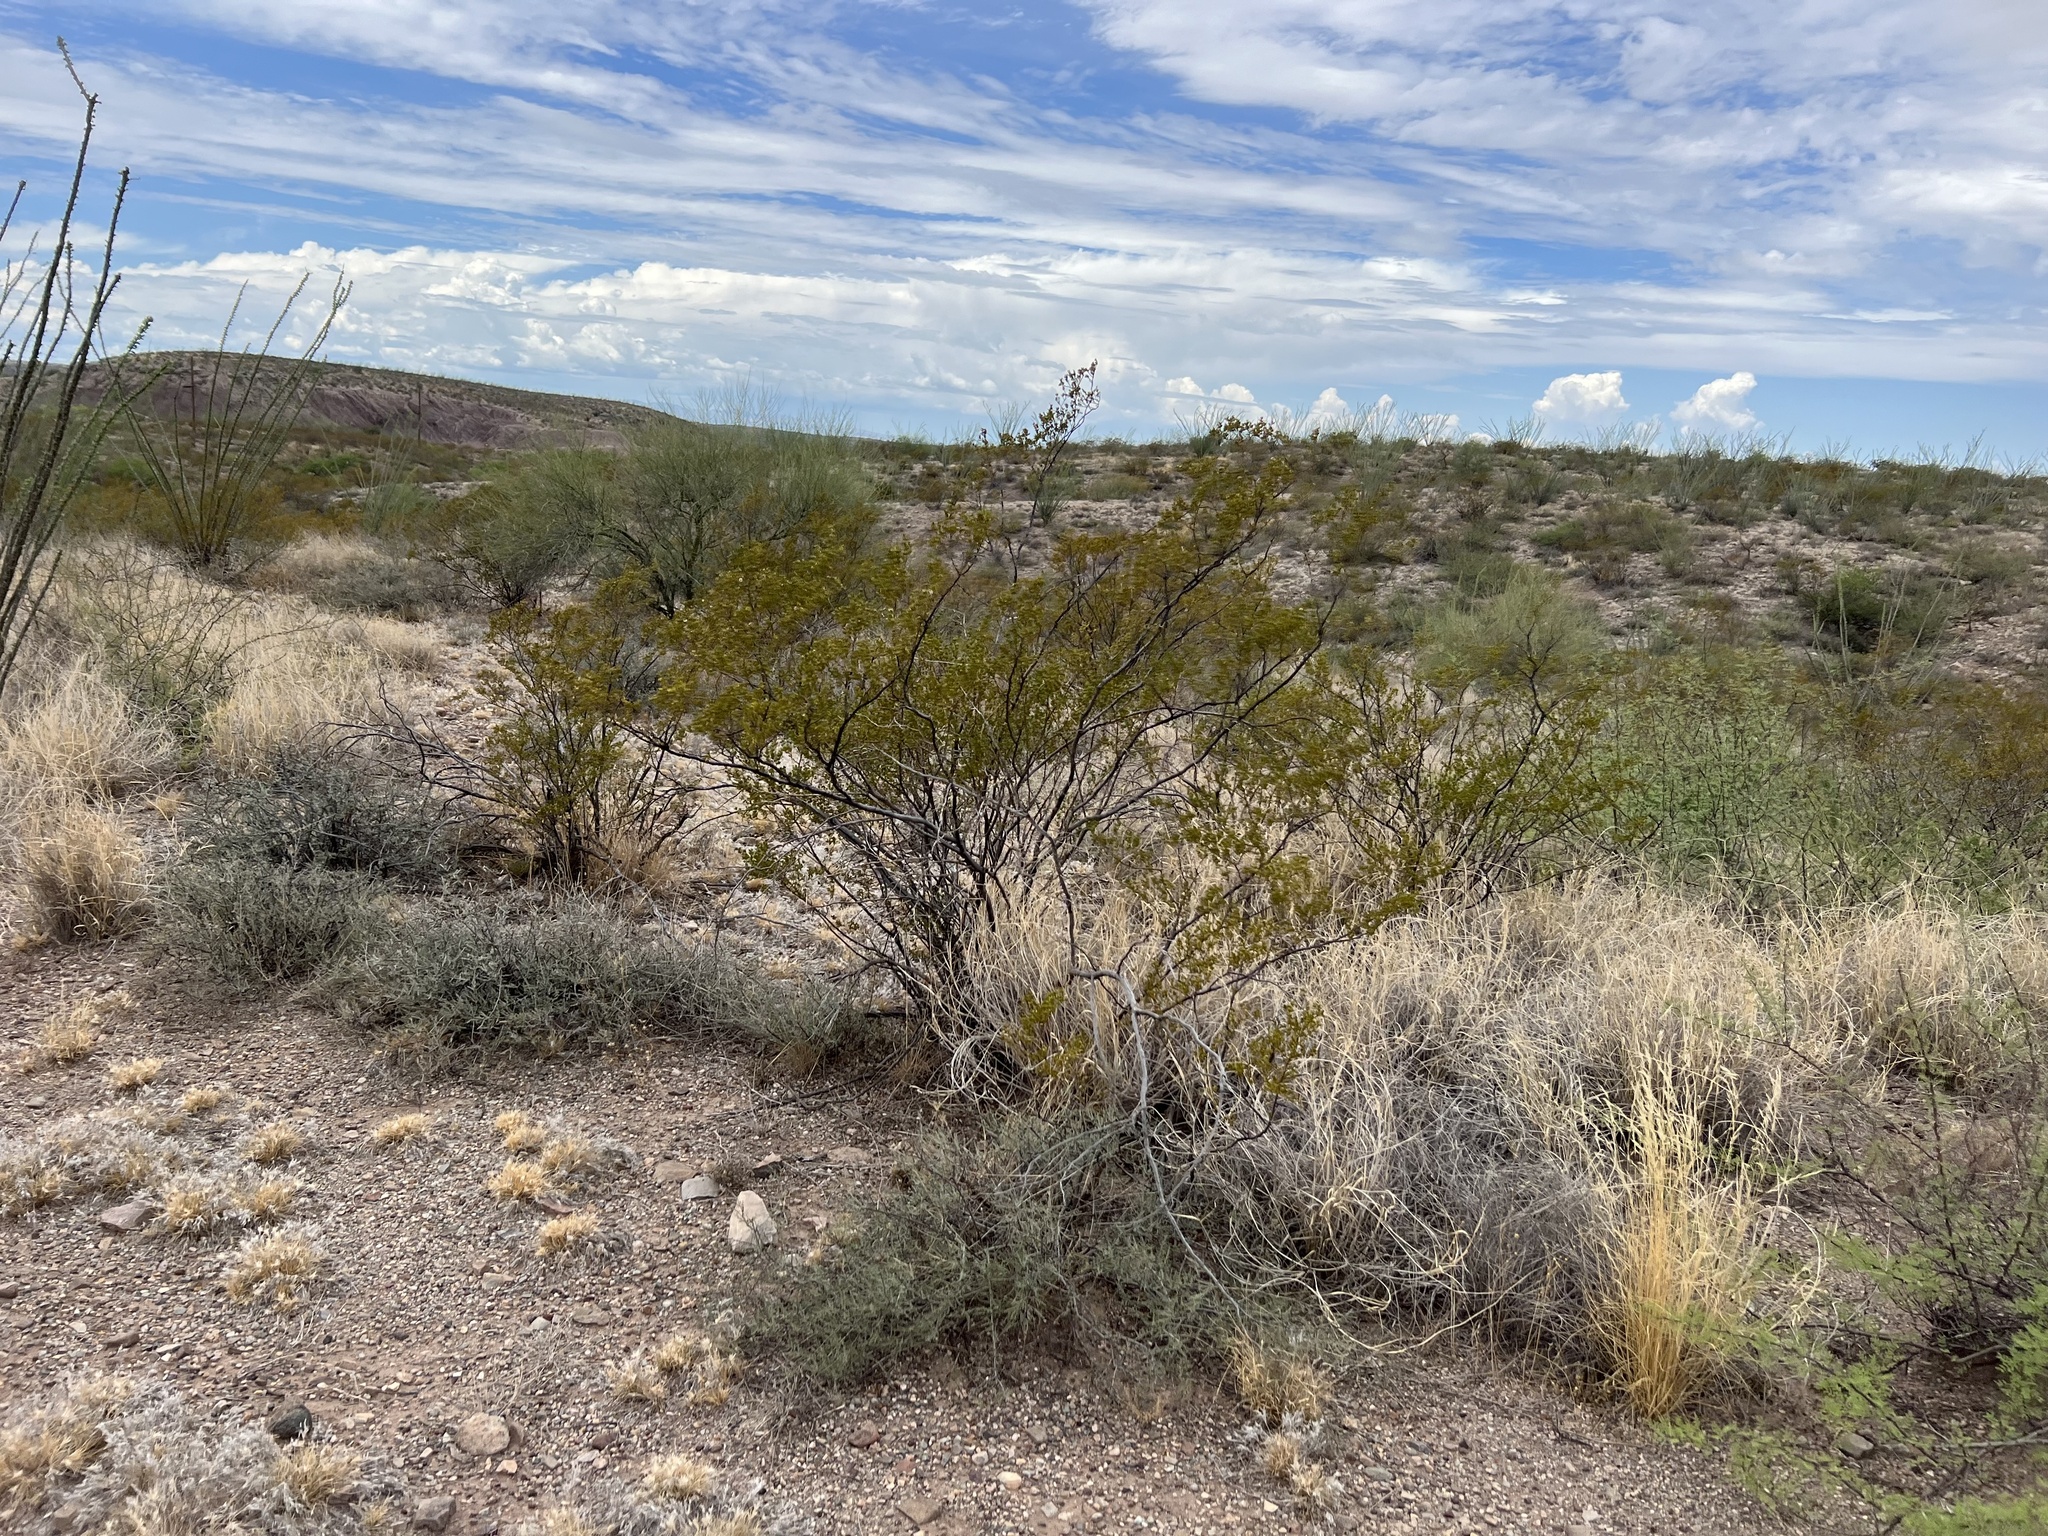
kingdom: Plantae
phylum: Tracheophyta
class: Magnoliopsida
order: Zygophyllales
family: Zygophyllaceae
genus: Larrea
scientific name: Larrea tridentata
